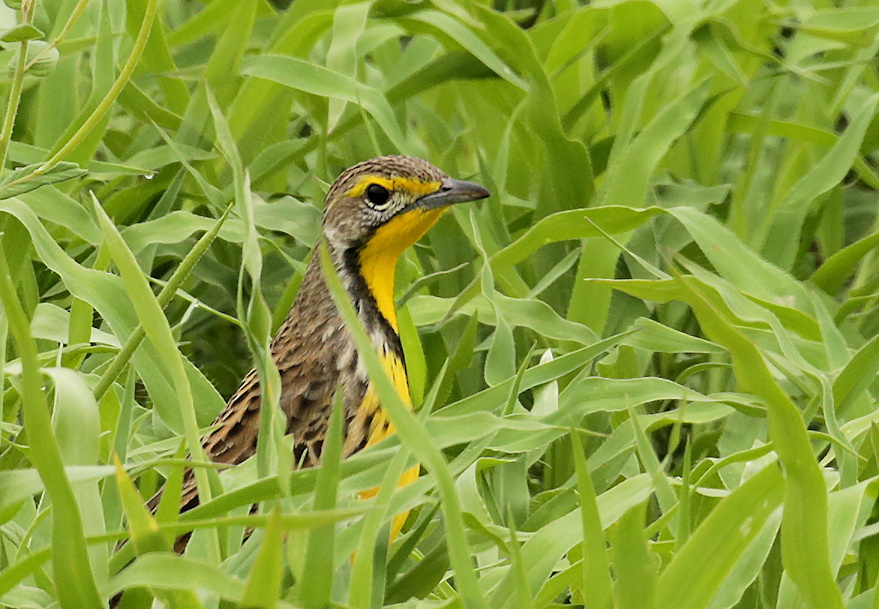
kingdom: Animalia
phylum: Chordata
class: Aves
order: Passeriformes
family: Motacillidae
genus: Macronyx
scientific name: Macronyx croceus
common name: Yellow-throated longclaw
